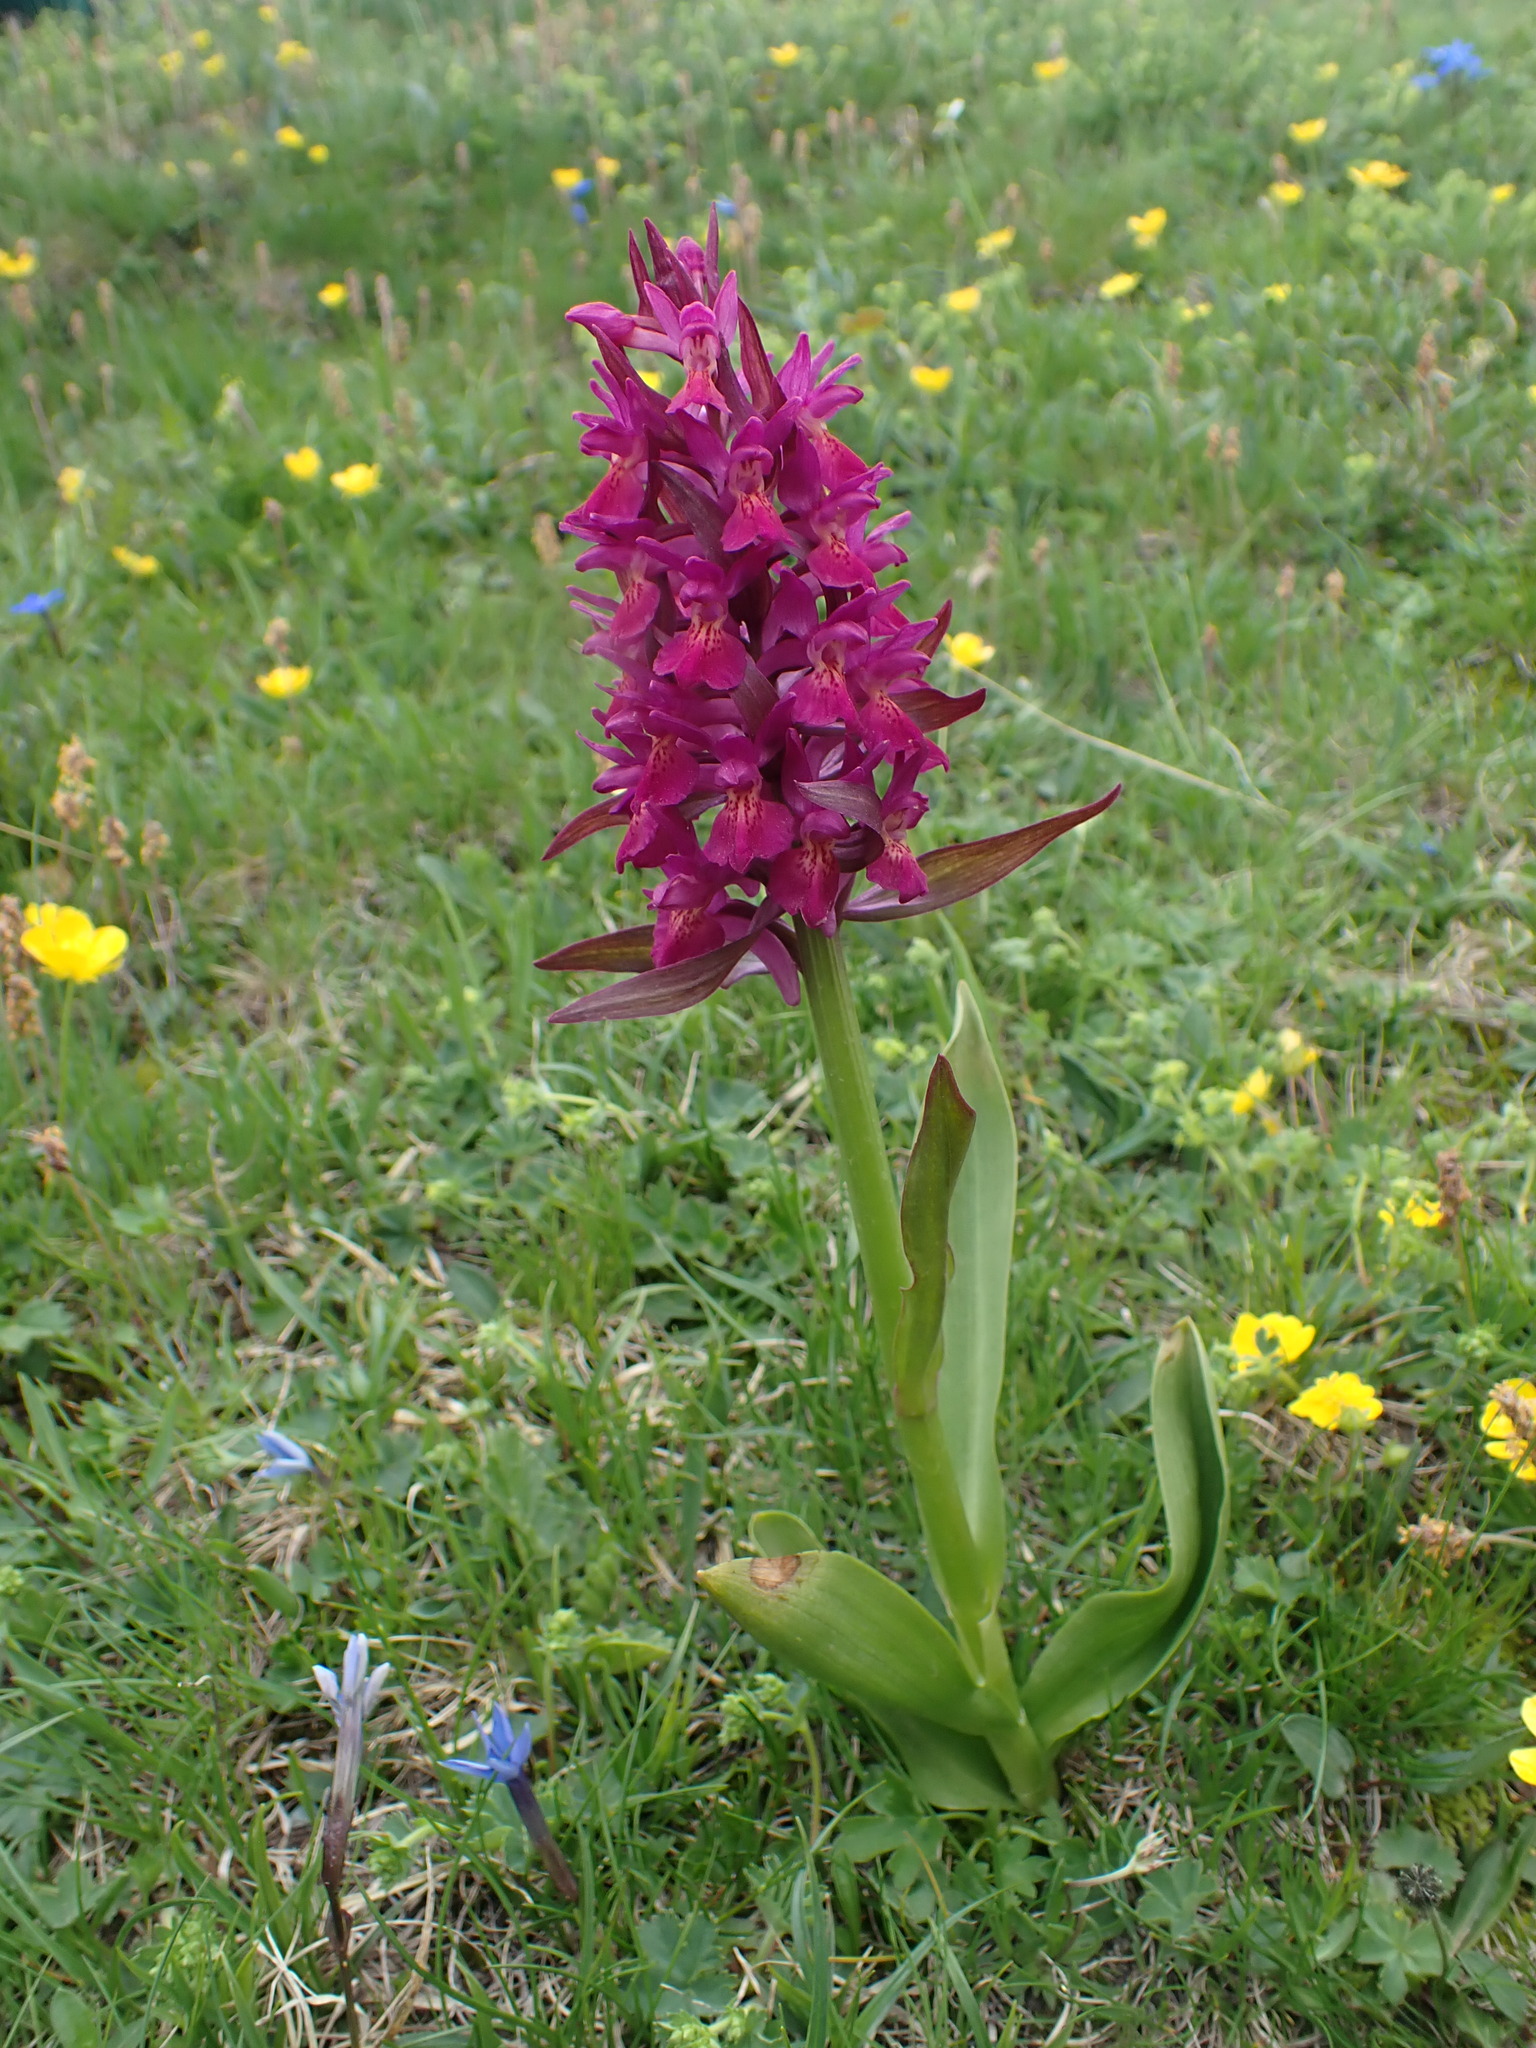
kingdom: Plantae
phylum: Tracheophyta
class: Liliopsida
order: Asparagales
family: Orchidaceae
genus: Dactylorhiza
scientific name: Dactylorhiza sambucina
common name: Elder-flowered orchid
